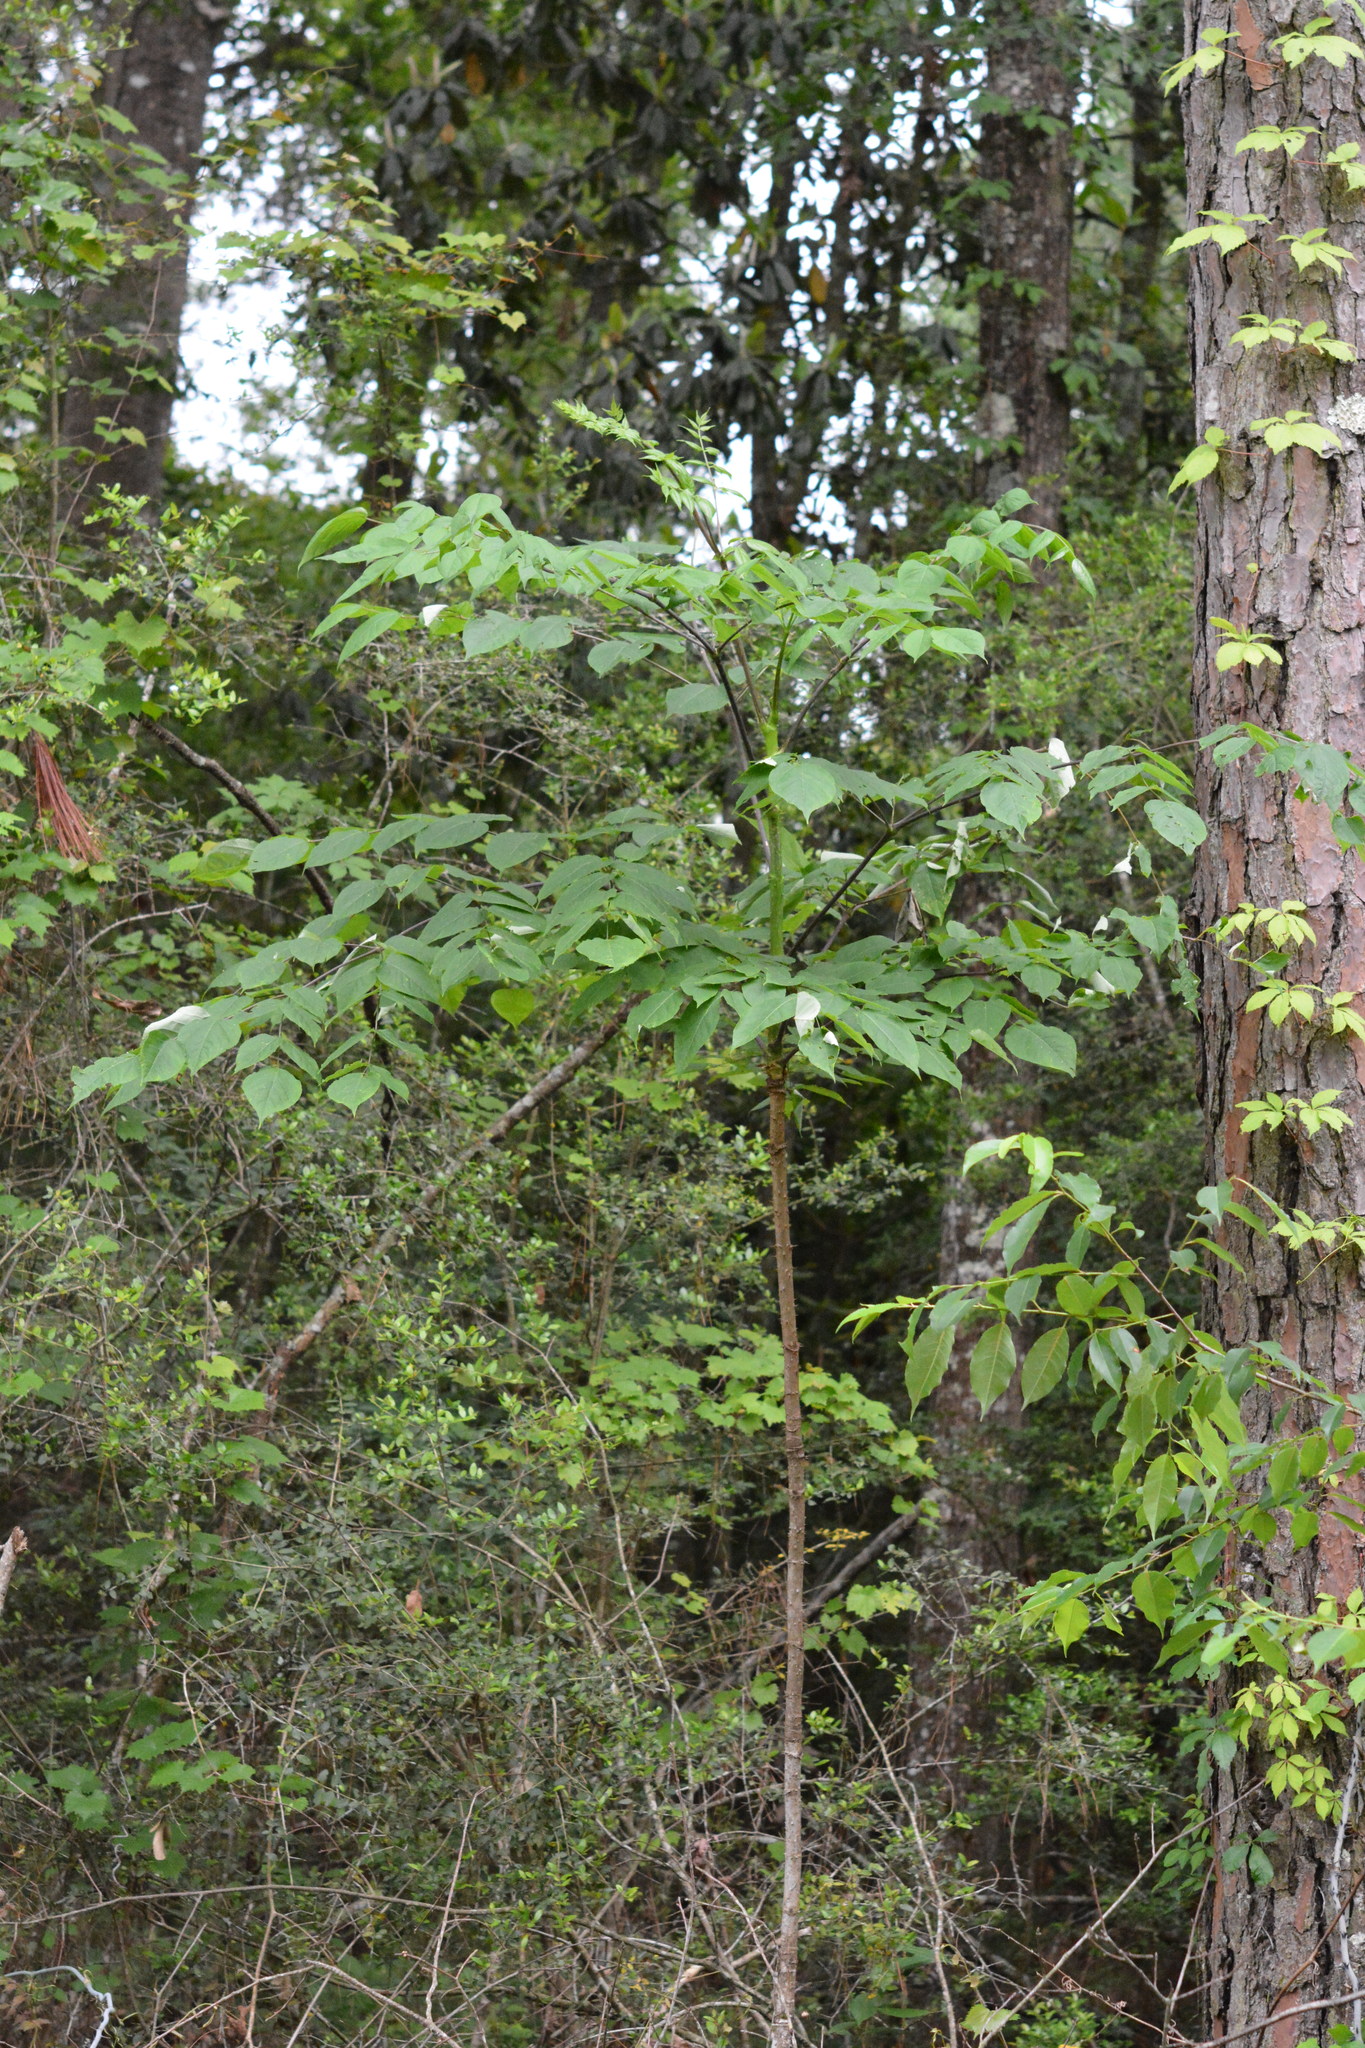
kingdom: Plantae
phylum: Tracheophyta
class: Magnoliopsida
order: Apiales
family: Araliaceae
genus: Aralia
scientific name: Aralia spinosa
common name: Hercules'-club
